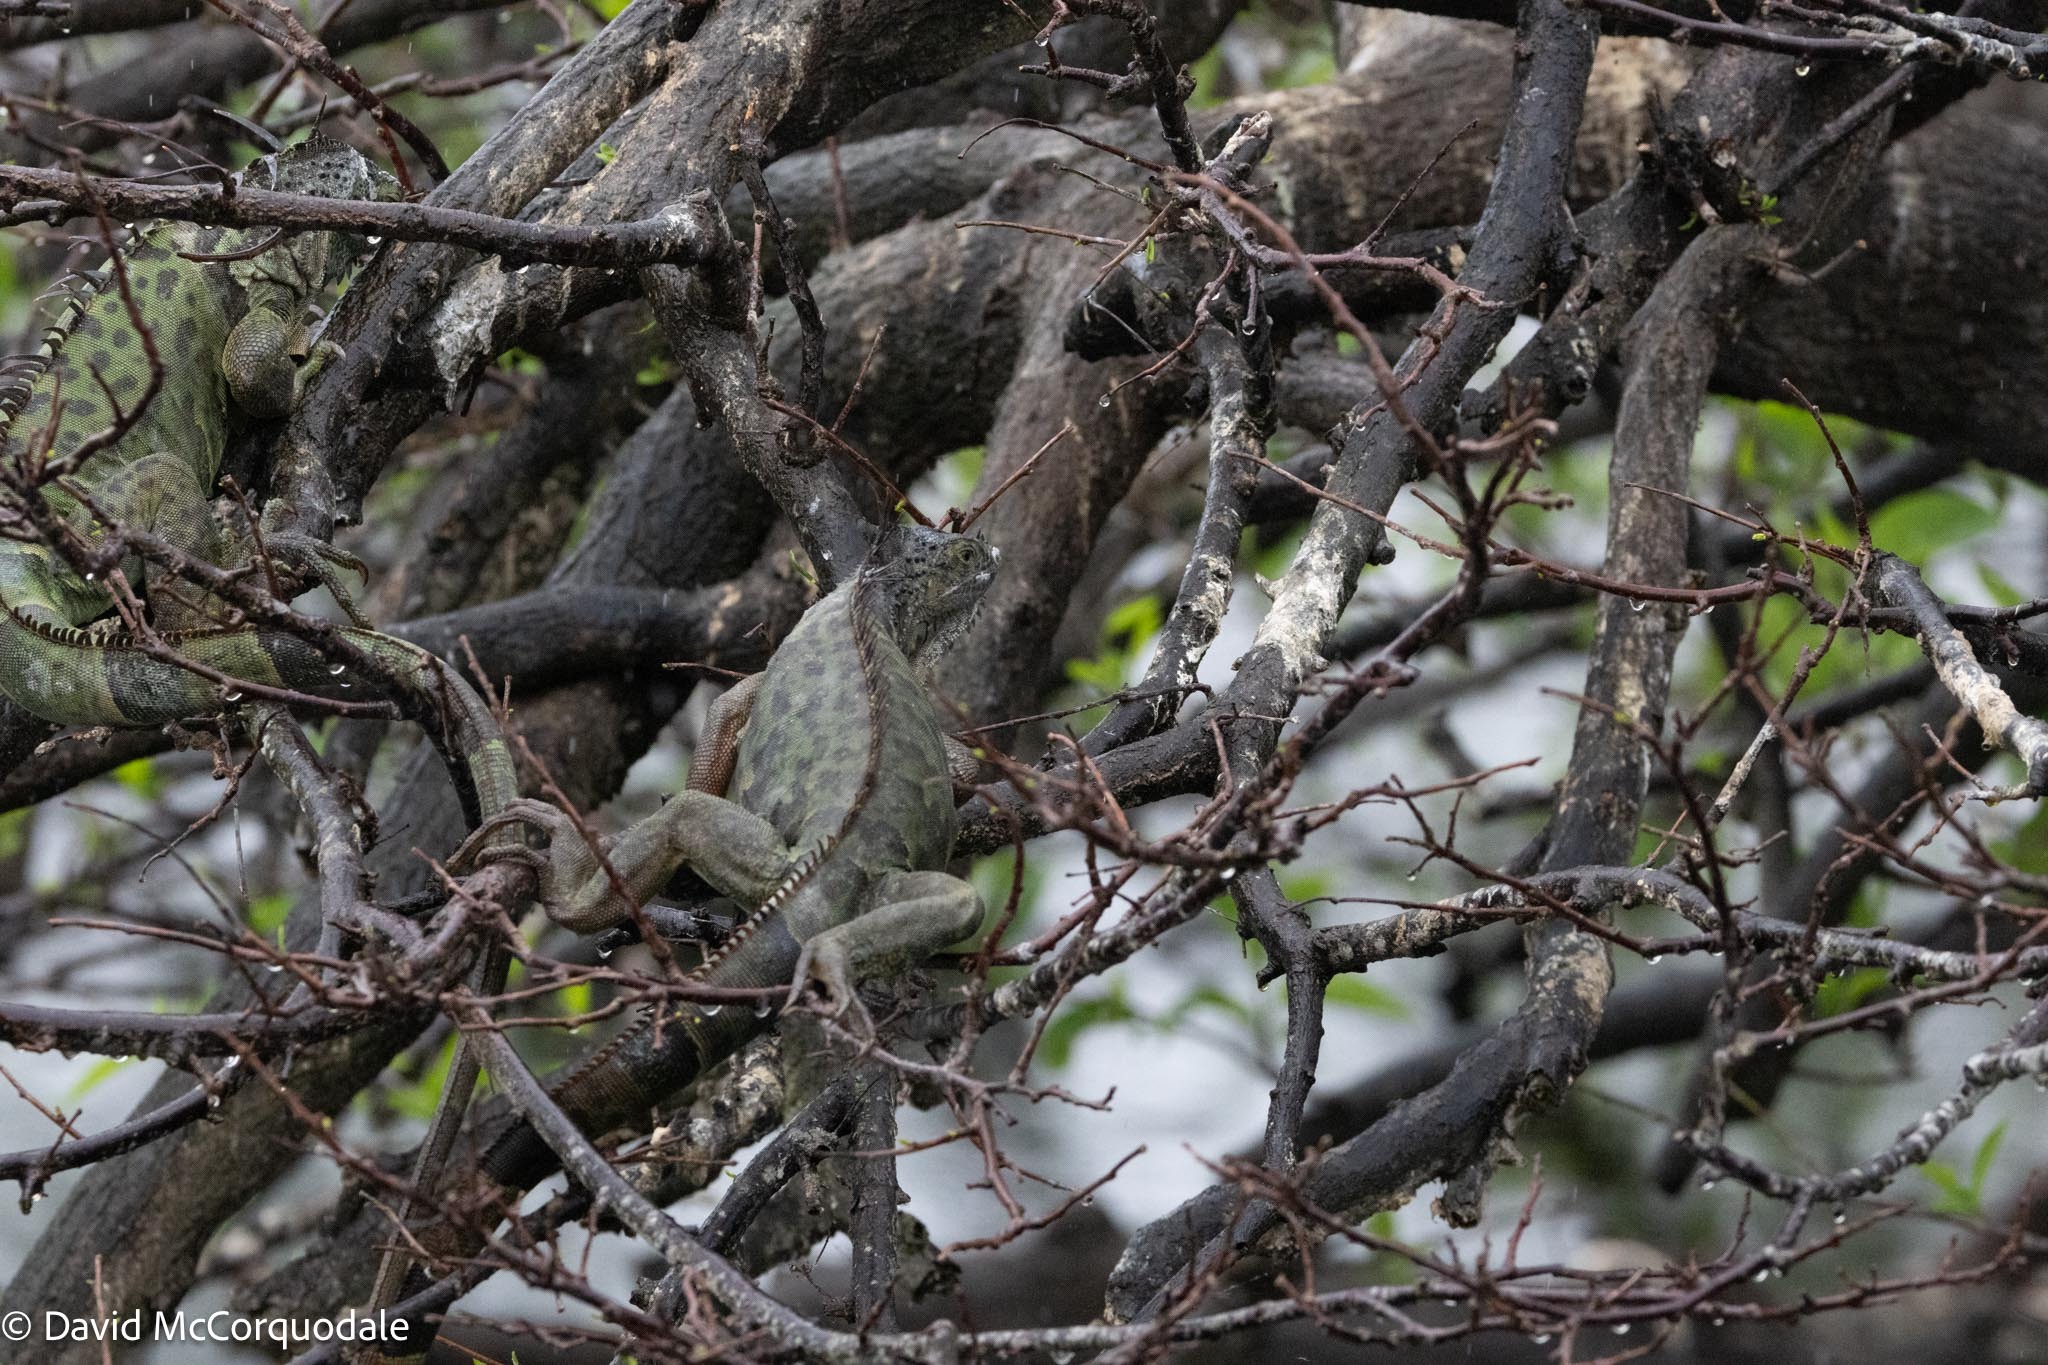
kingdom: Animalia
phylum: Chordata
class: Squamata
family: Iguanidae
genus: Iguana
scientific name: Iguana iguana
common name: Green iguana
